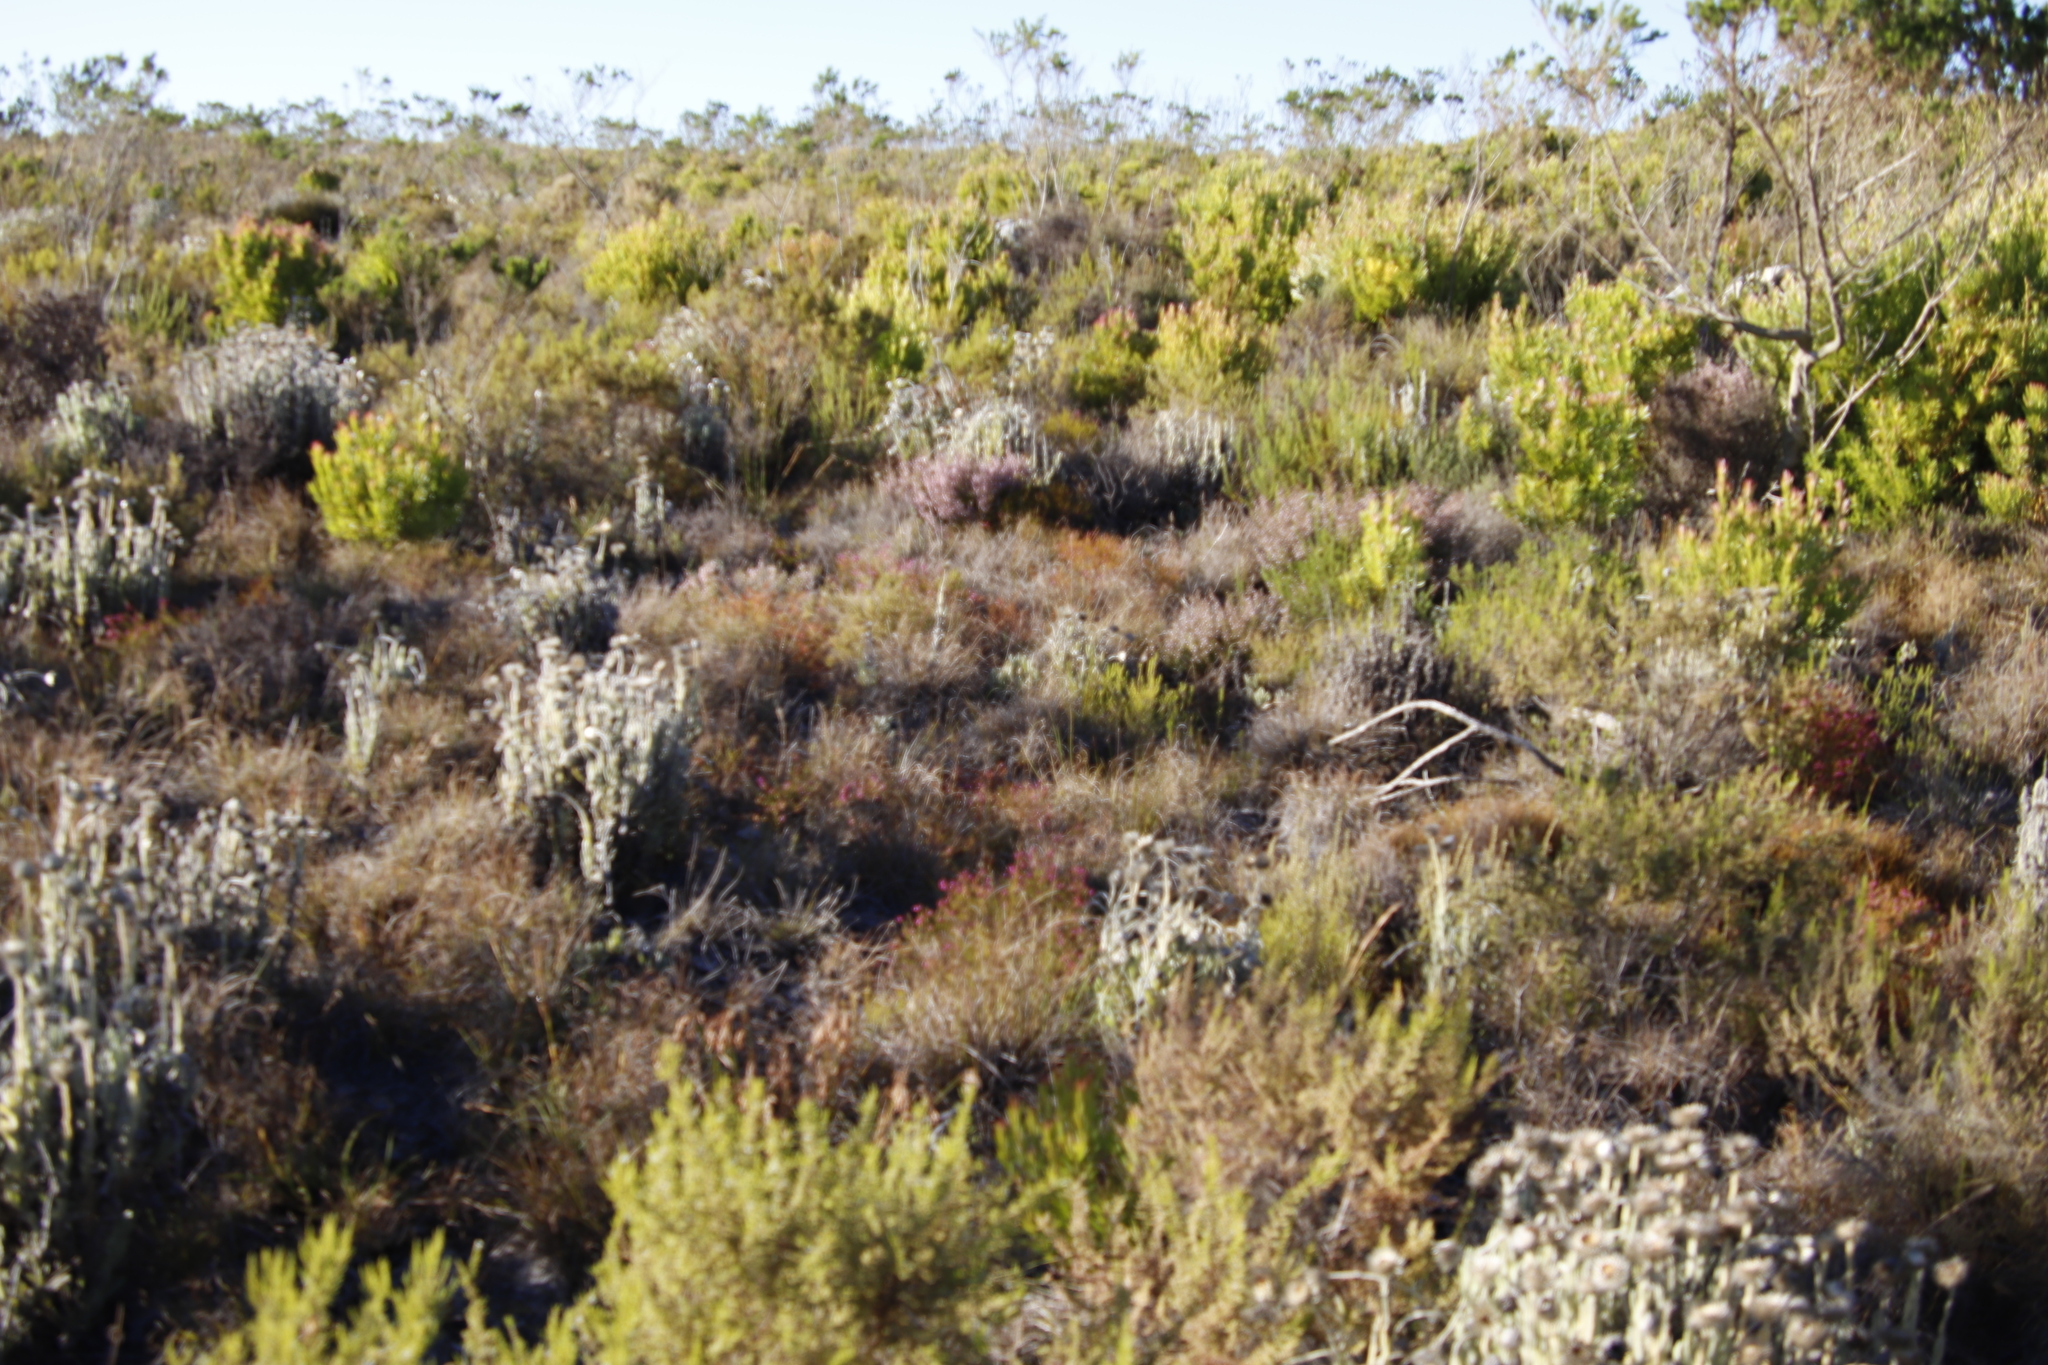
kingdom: Plantae
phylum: Tracheophyta
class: Magnoliopsida
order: Asterales
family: Asteraceae
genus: Syncarpha
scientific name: Syncarpha vestita
